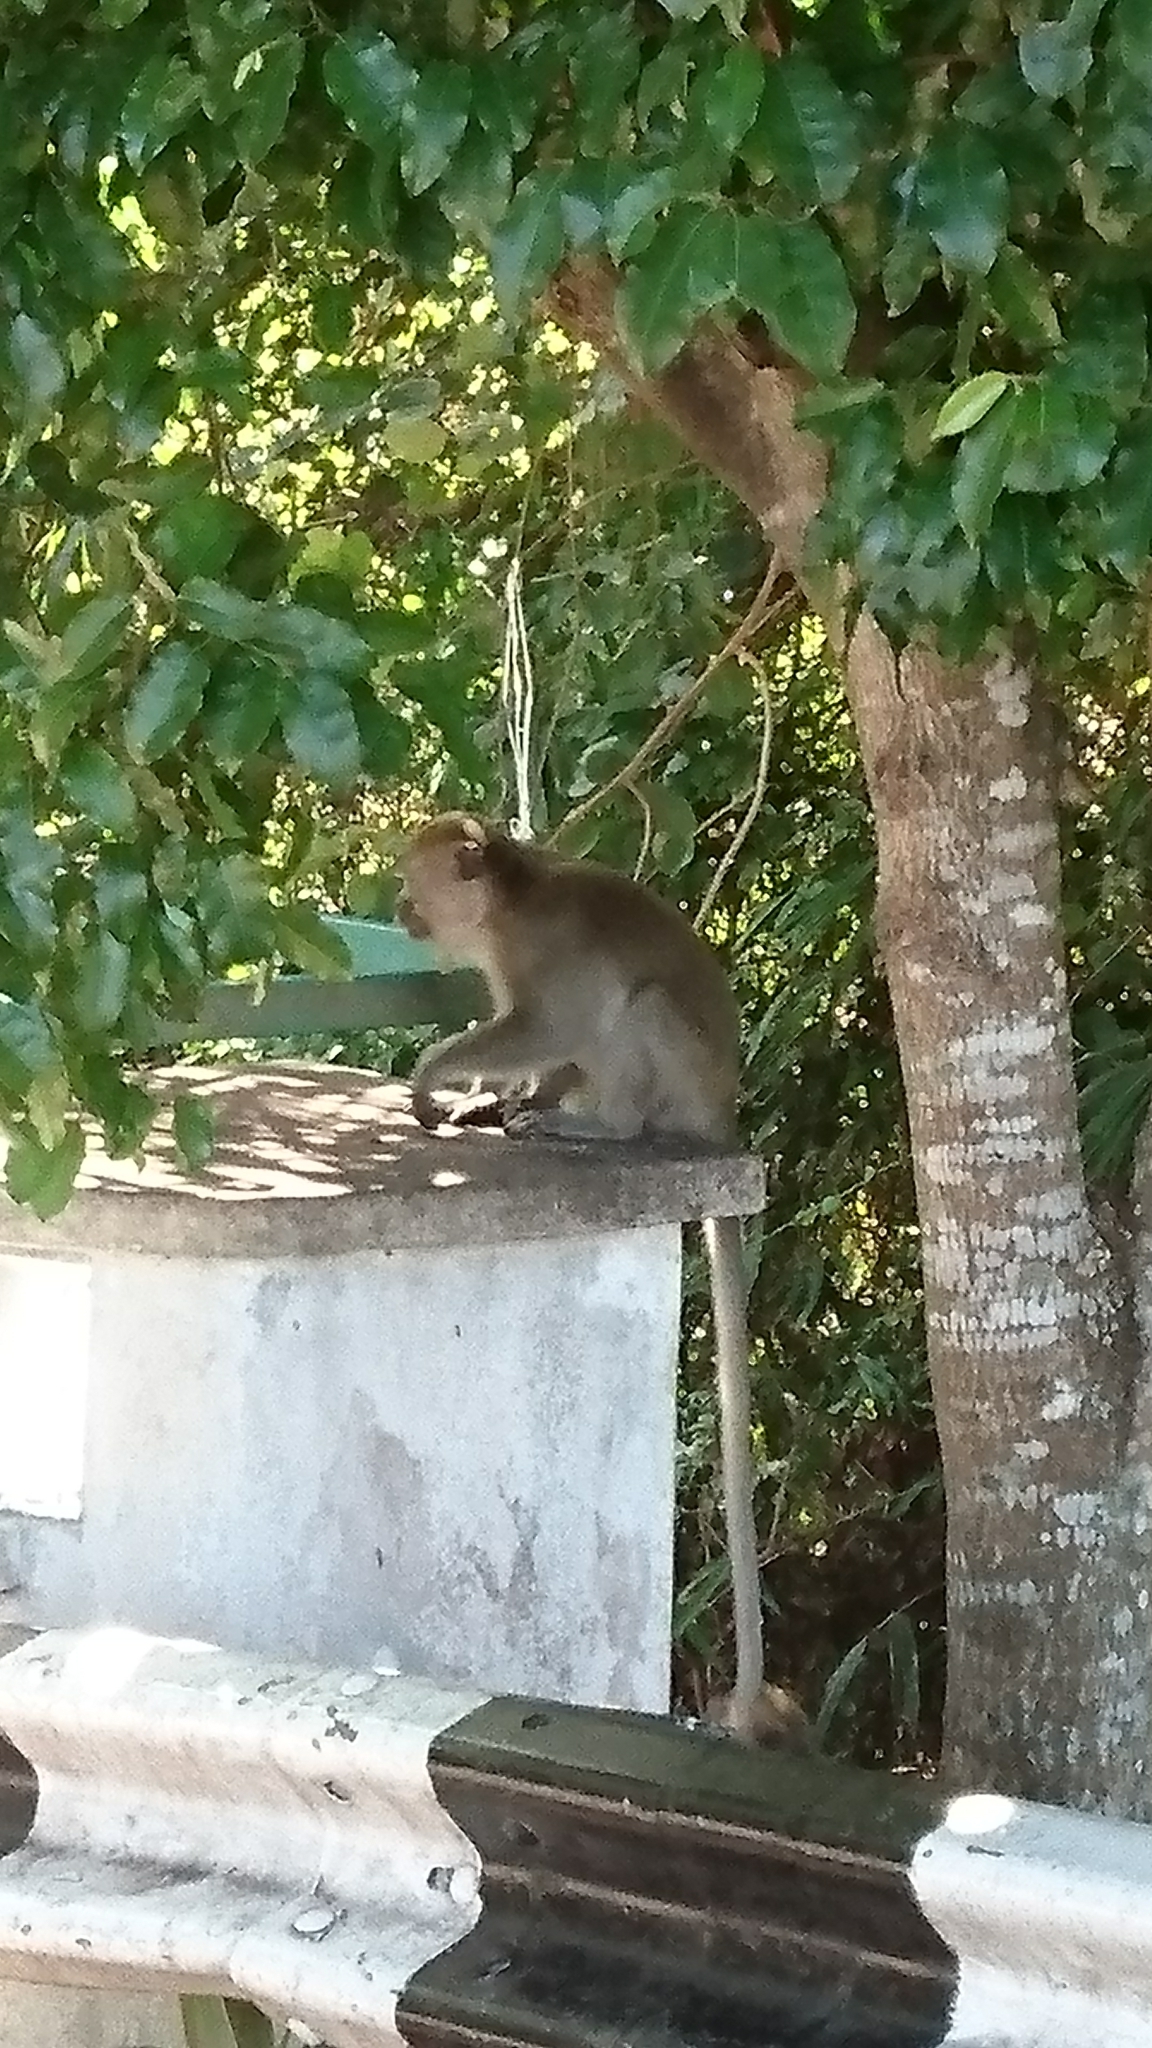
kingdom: Animalia
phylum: Chordata
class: Mammalia
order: Primates
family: Cercopithecidae
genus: Macaca
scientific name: Macaca fascicularis
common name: Crab-eating macaque
